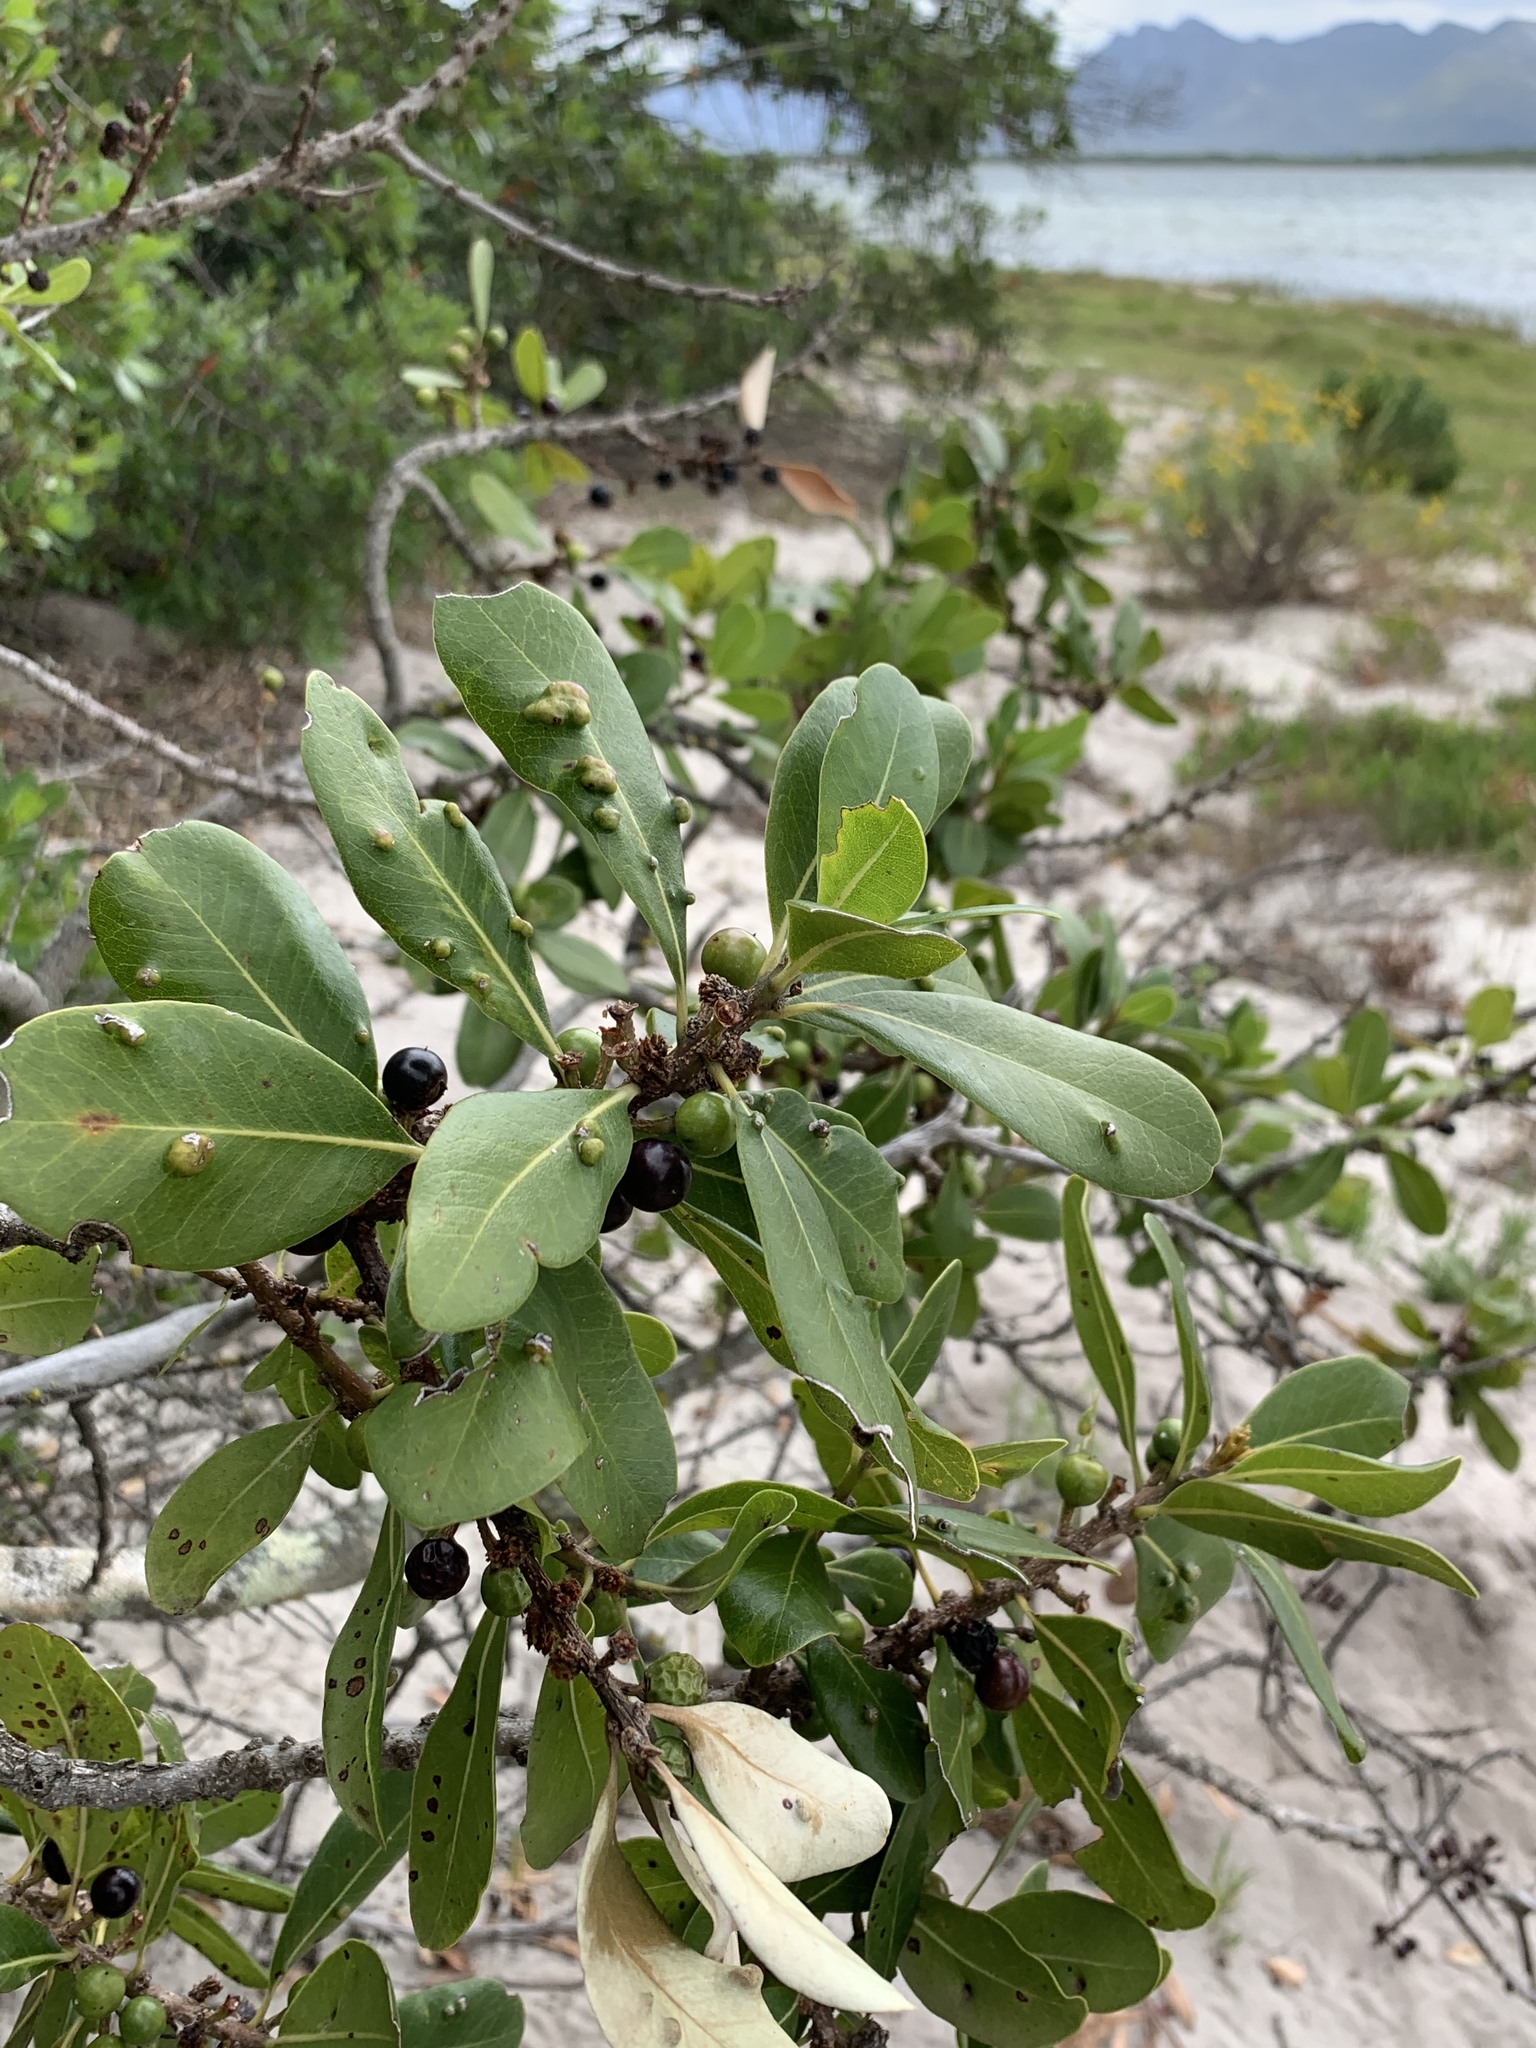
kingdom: Plantae
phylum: Tracheophyta
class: Magnoliopsida
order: Ericales
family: Sapotaceae
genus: Sideroxylon
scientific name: Sideroxylon inerme
